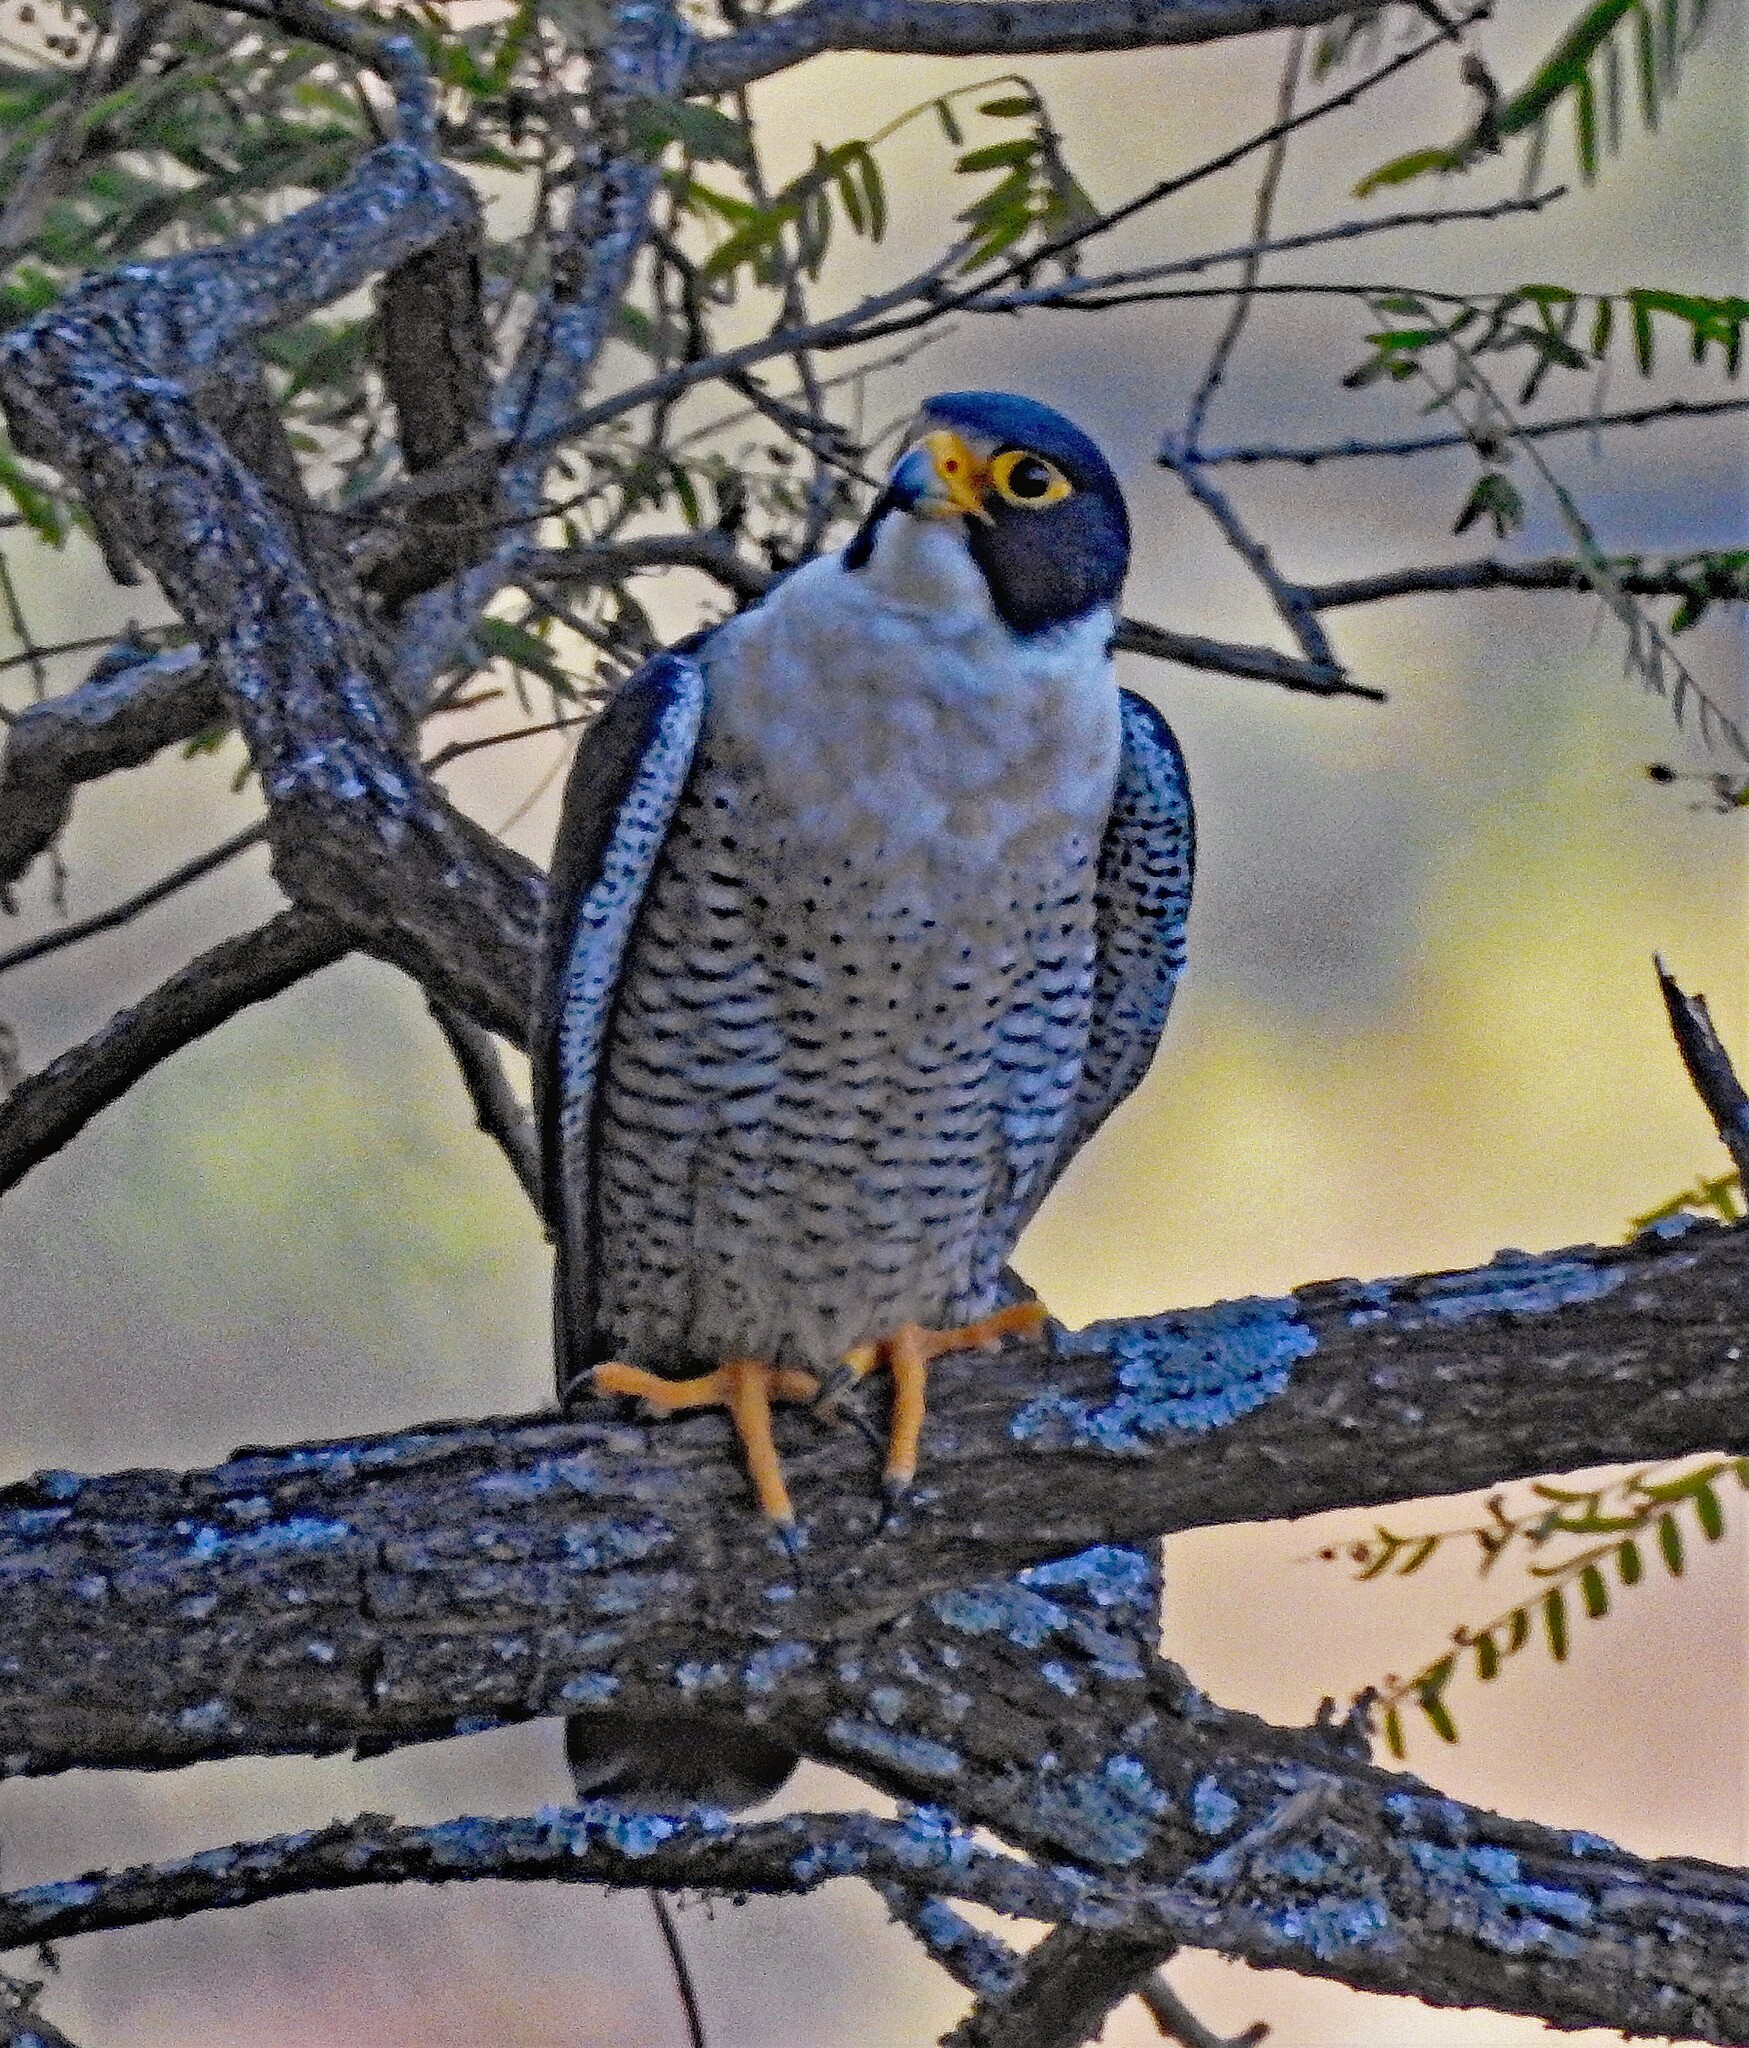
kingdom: Animalia
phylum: Chordata
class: Aves
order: Falconiformes
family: Falconidae
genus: Falco
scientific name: Falco peregrinus
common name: Peregrine falcon
